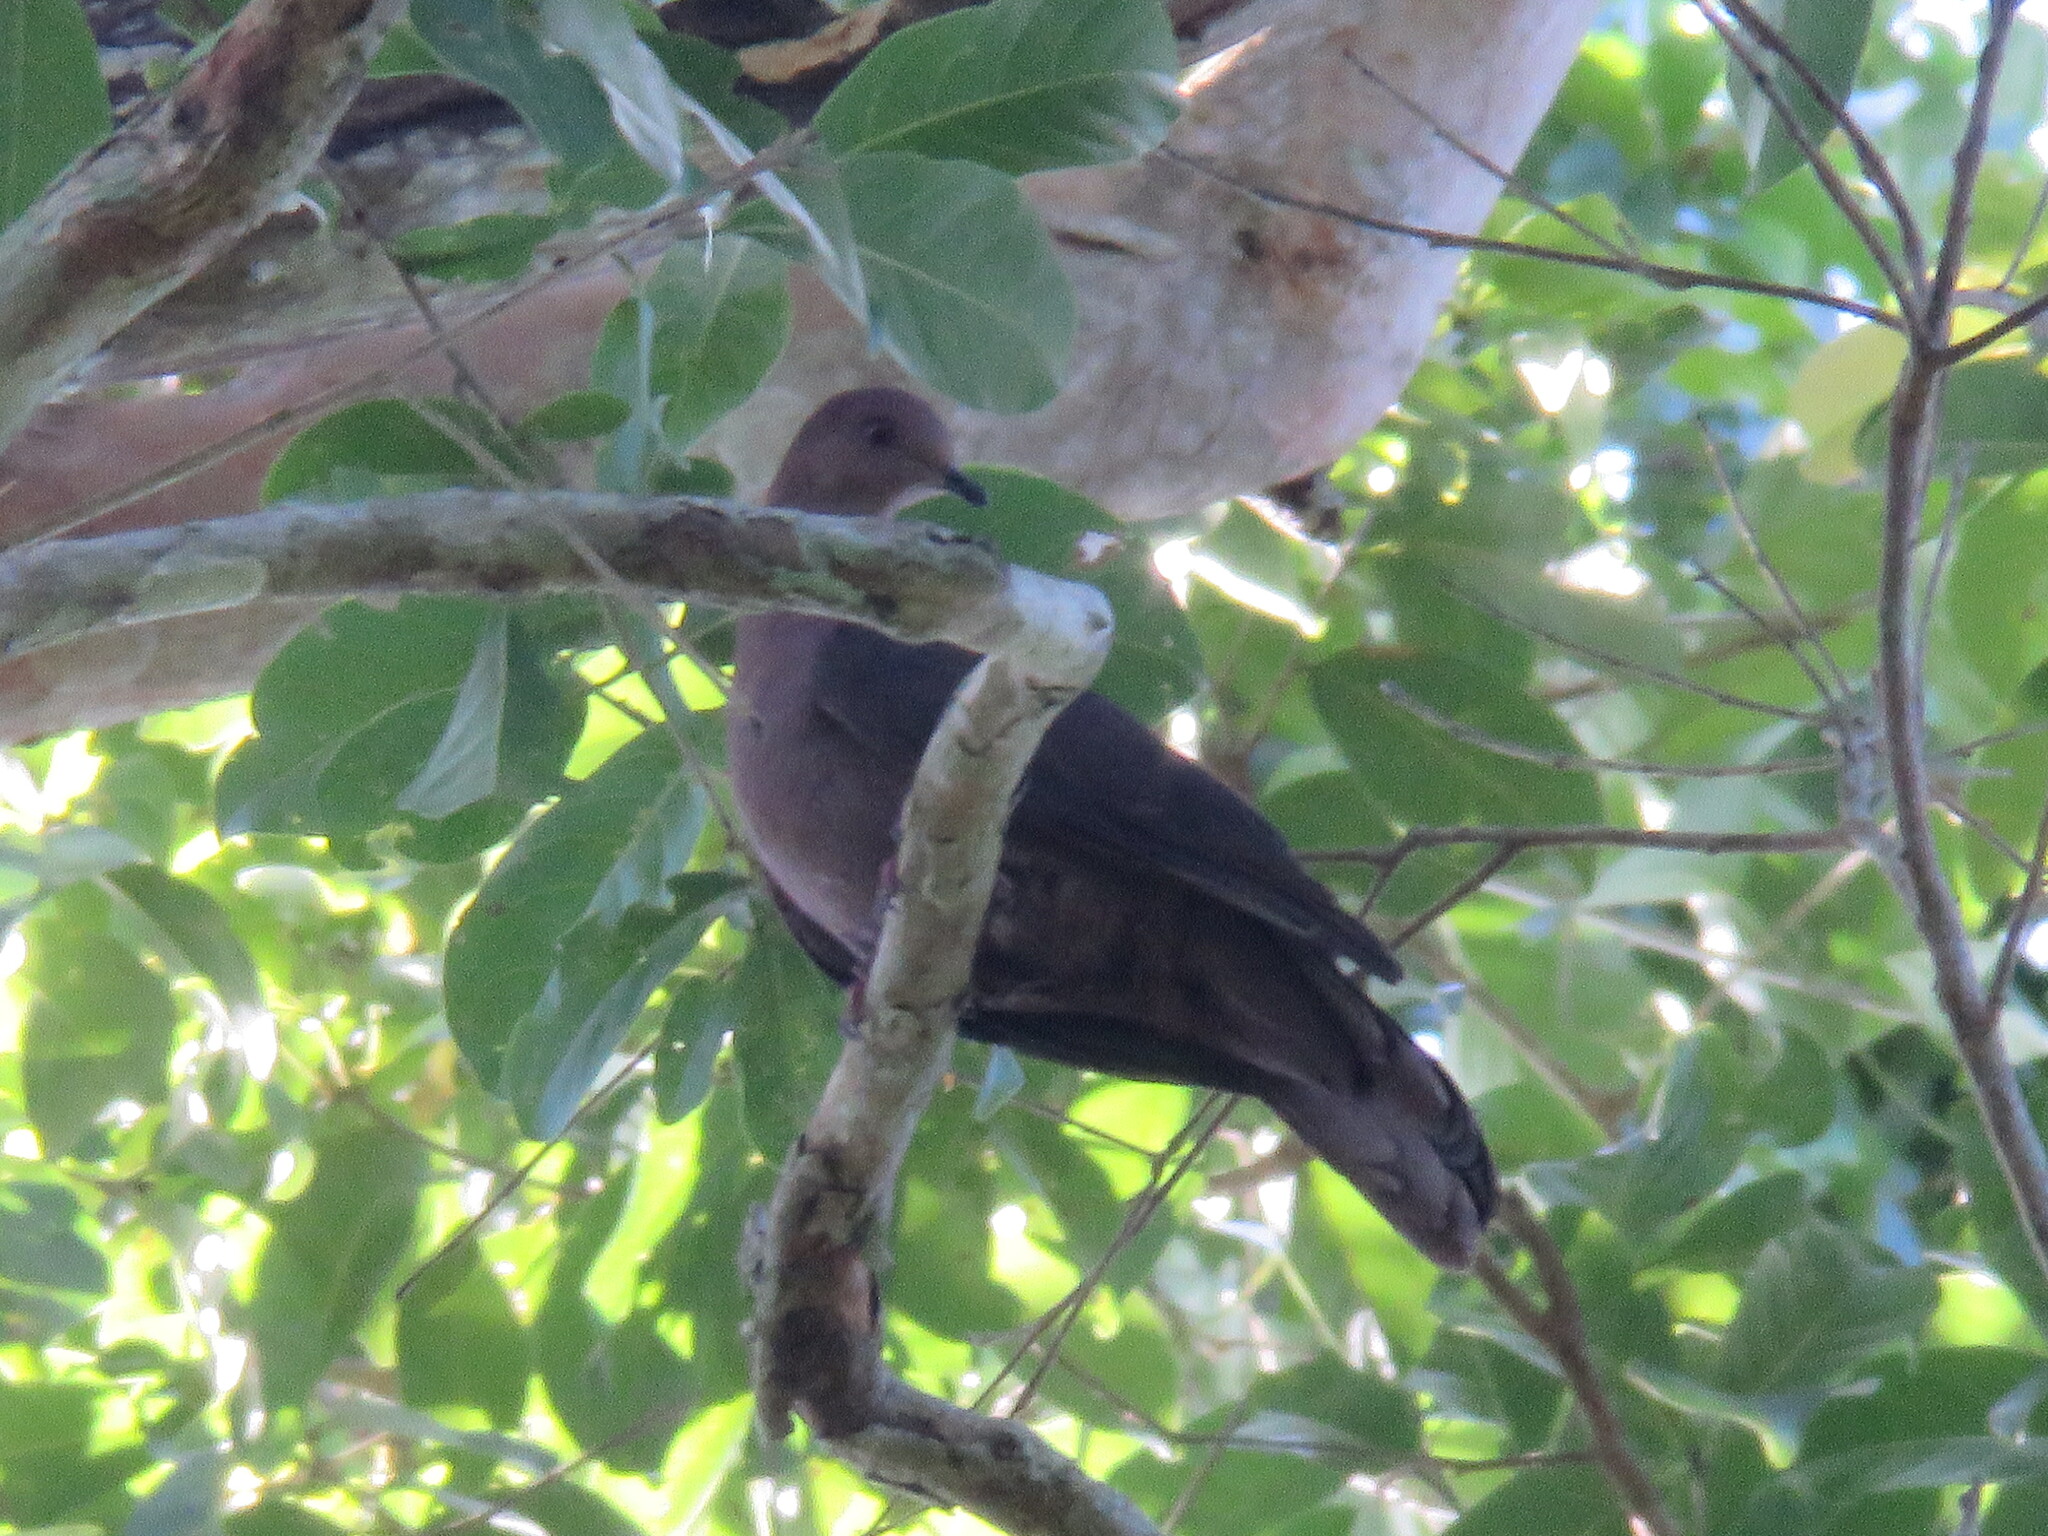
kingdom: Animalia
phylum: Chordata
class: Aves
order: Columbiformes
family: Columbidae
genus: Patagioenas
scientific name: Patagioenas plumbea
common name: Plumbeous pigeon
